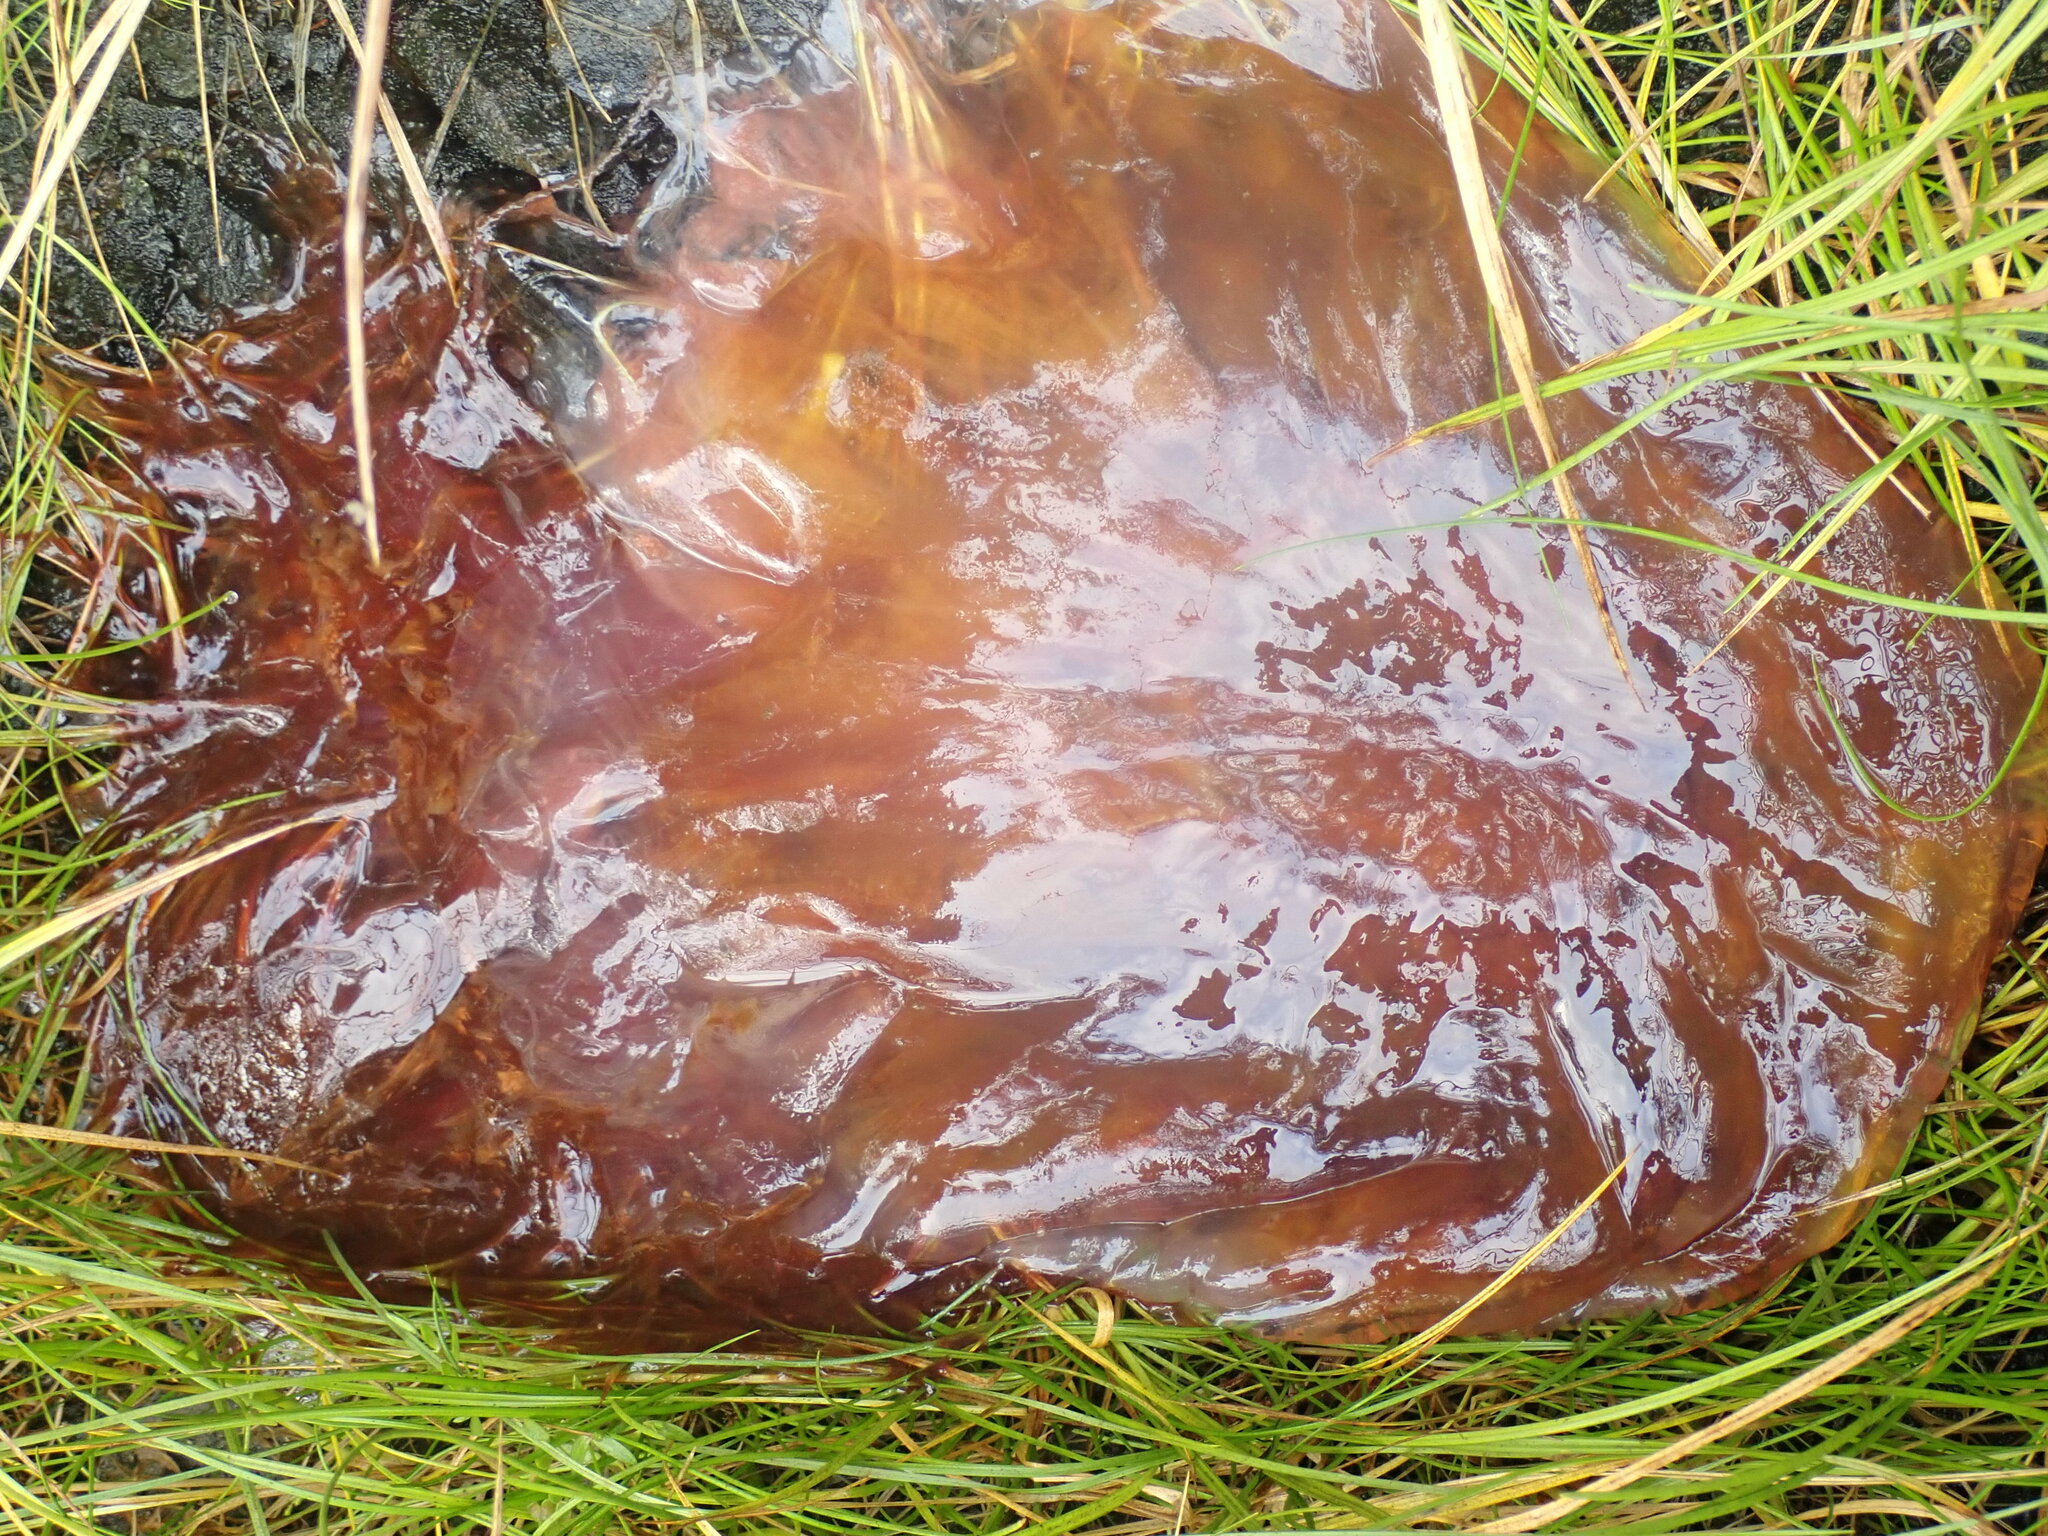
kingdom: Animalia
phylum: Cnidaria
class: Scyphozoa
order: Semaeostomeae
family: Cyaneidae
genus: Cyanea
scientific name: Cyanea ferruginea
